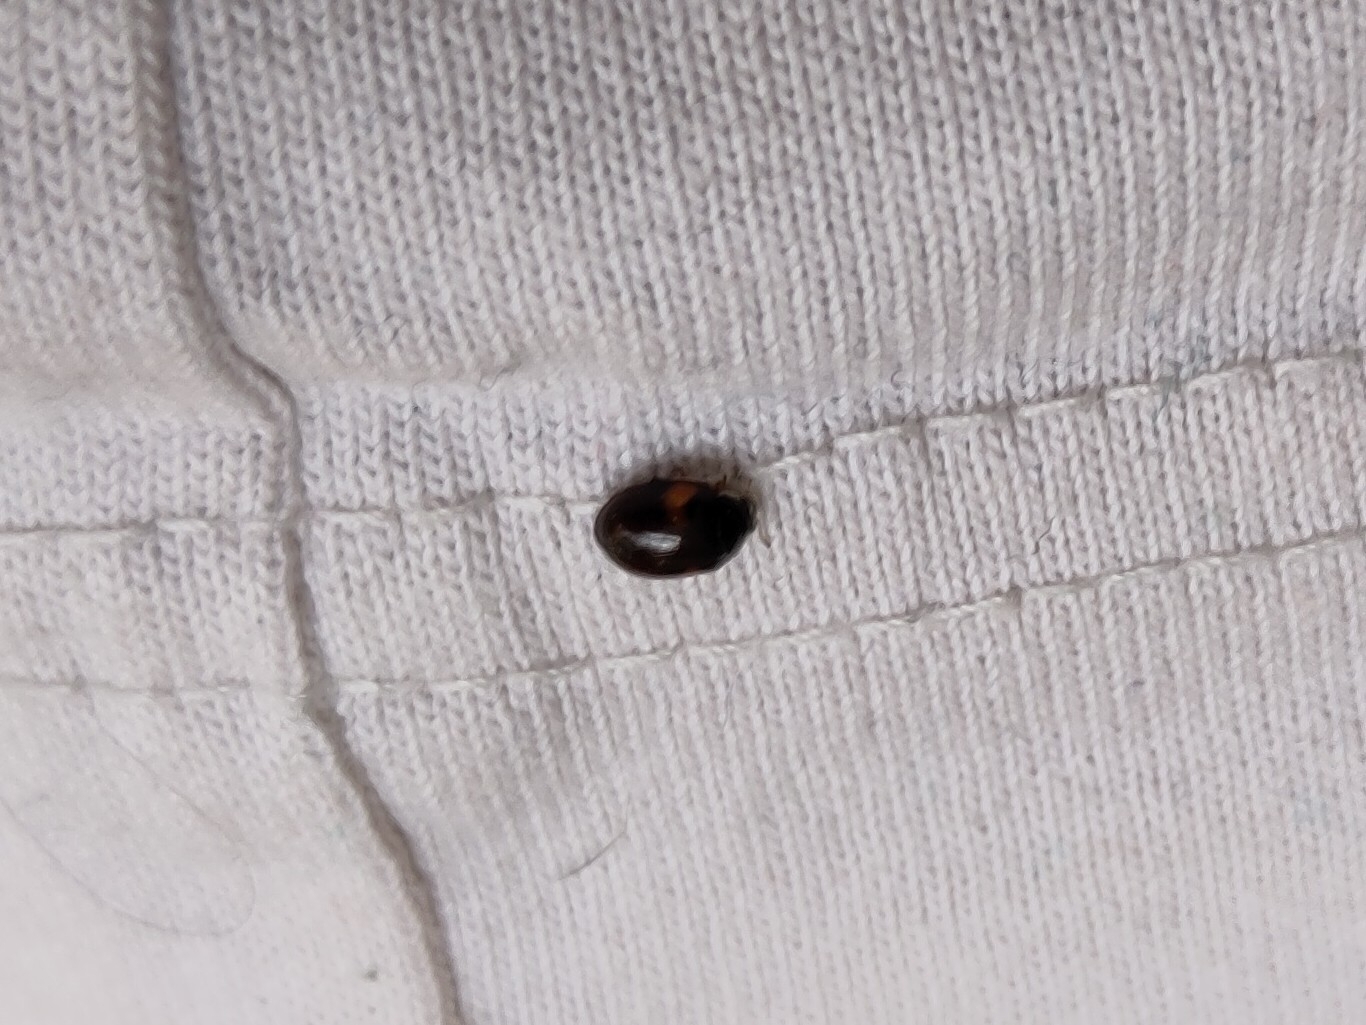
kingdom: Animalia
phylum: Arthropoda
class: Insecta
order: Coleoptera
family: Coccinellidae
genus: Adalia
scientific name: Adalia decempunctata
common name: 10-spot ladybird
